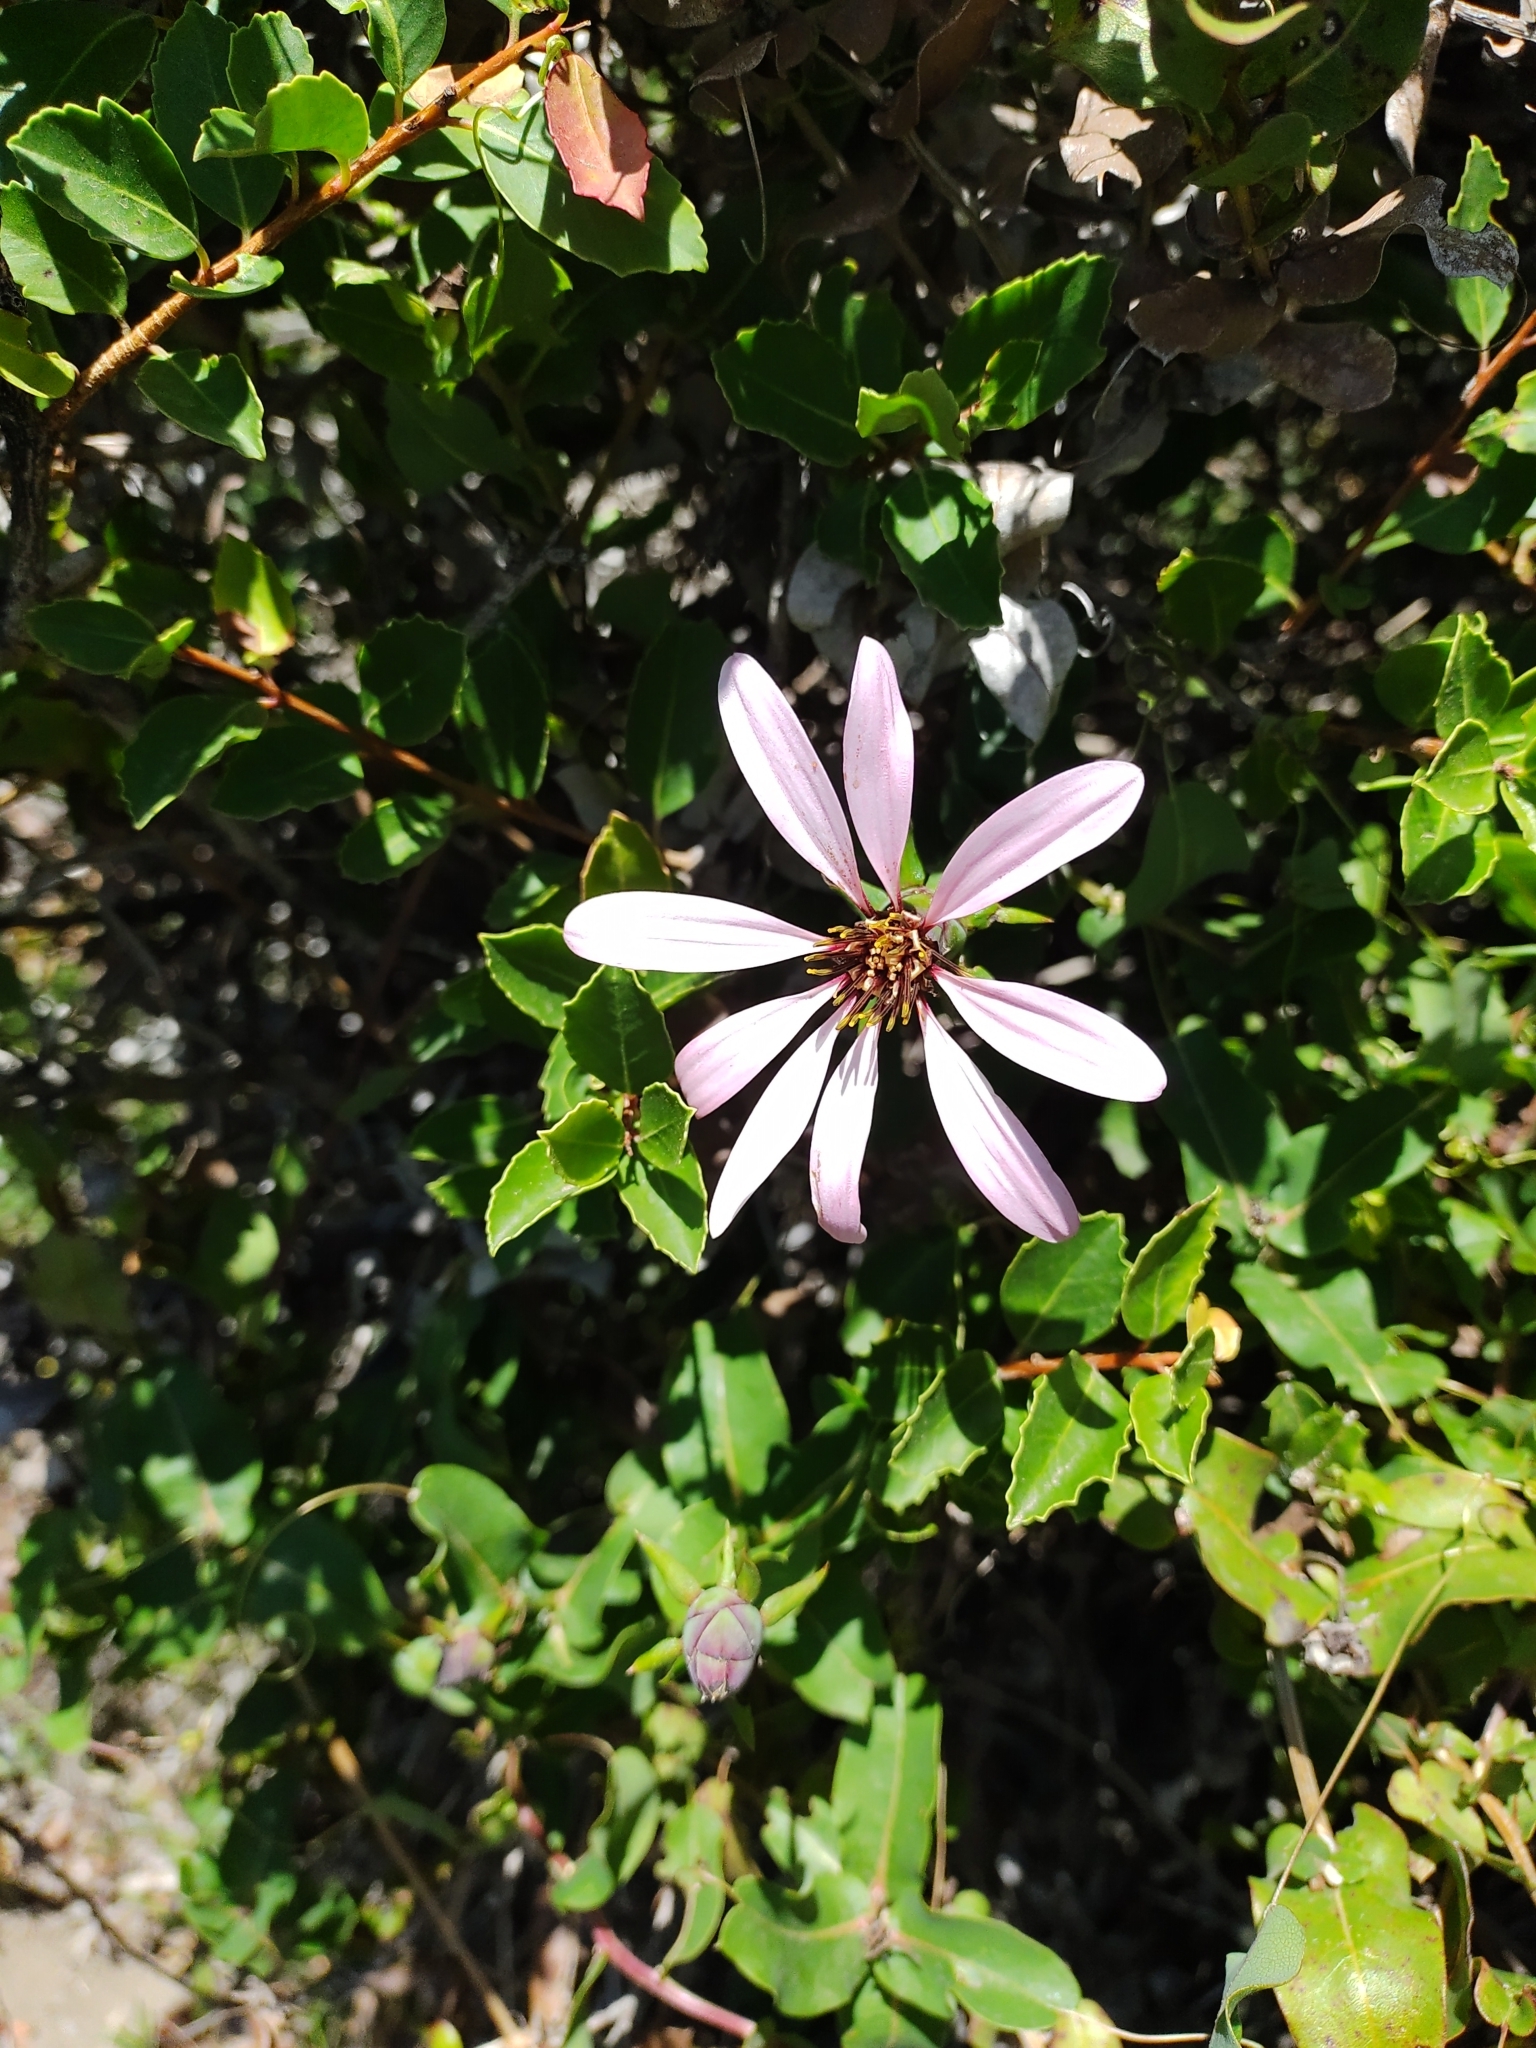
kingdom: Plantae
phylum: Tracheophyta
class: Magnoliopsida
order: Asterales
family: Asteraceae
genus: Mutisia
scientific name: Mutisia spinosa
